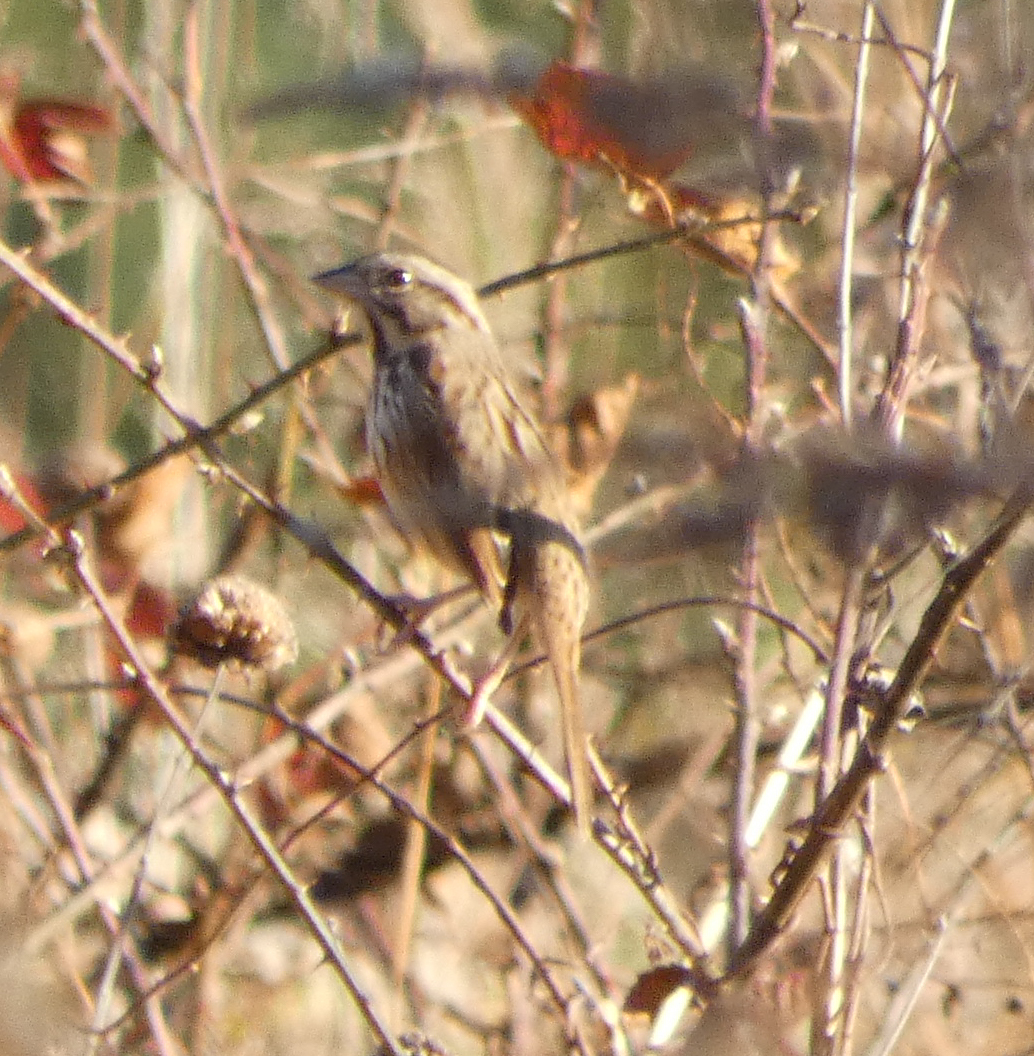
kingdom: Animalia
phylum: Chordata
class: Aves
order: Passeriformes
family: Passerellidae
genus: Melospiza
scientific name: Melospiza melodia
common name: Song sparrow
